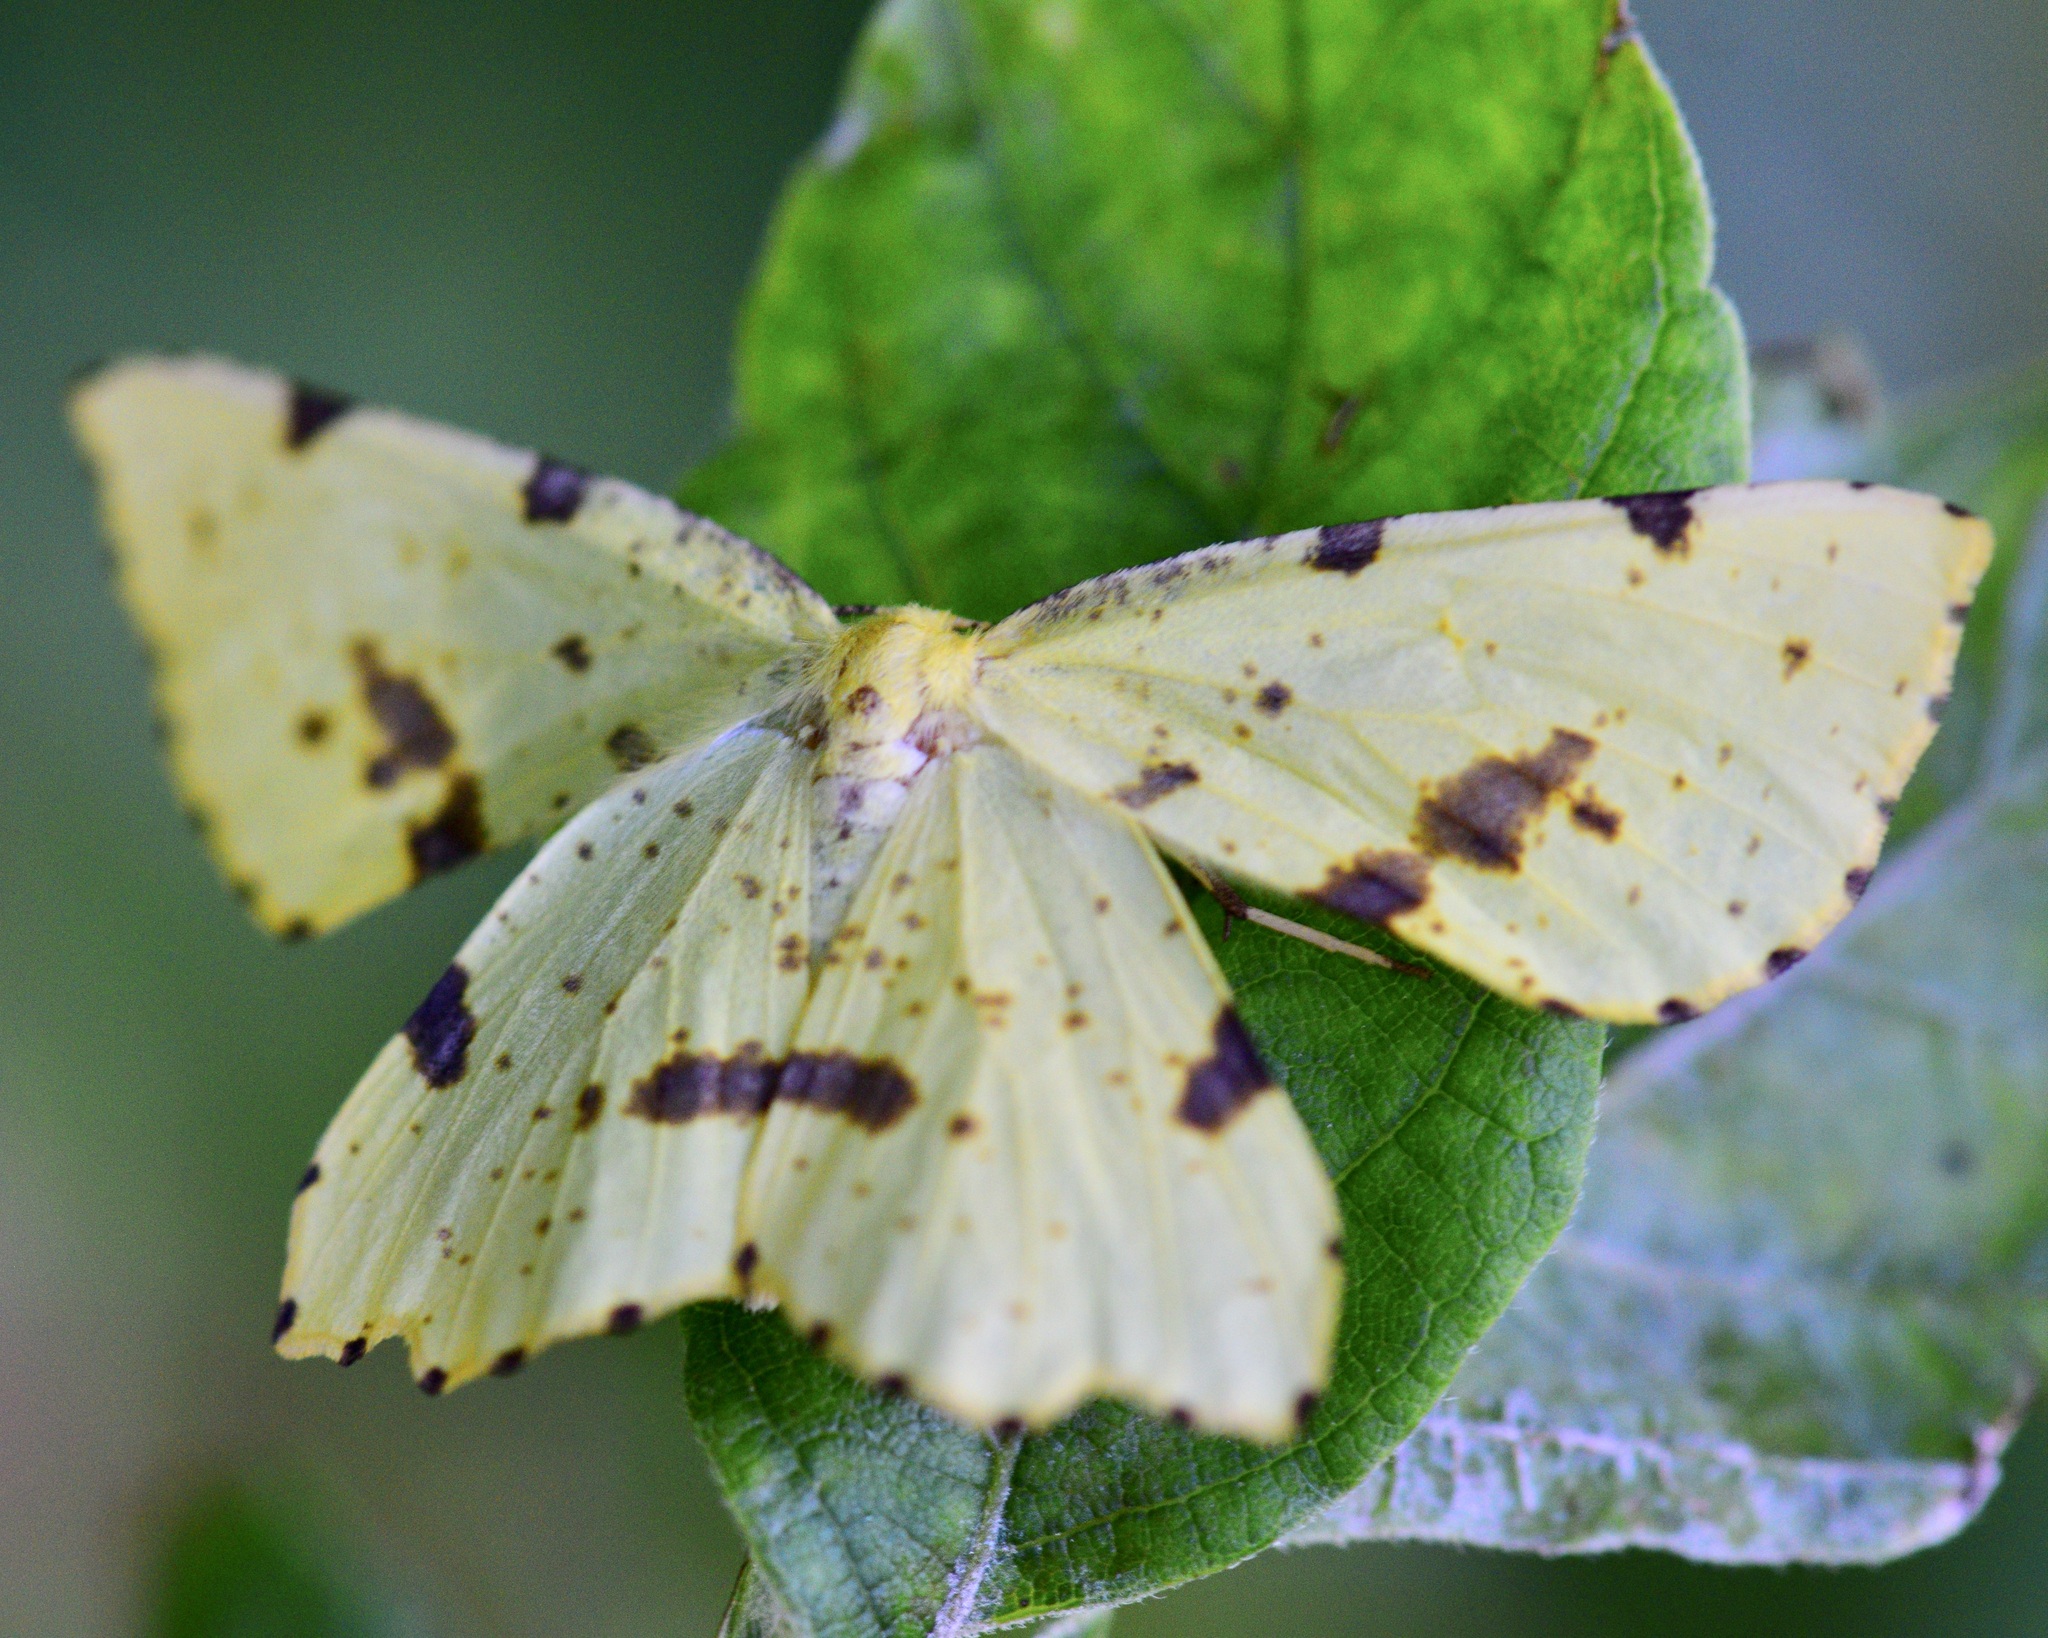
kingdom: Animalia
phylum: Arthropoda
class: Insecta
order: Lepidoptera
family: Geometridae
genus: Xanthotype
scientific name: Xanthotype
